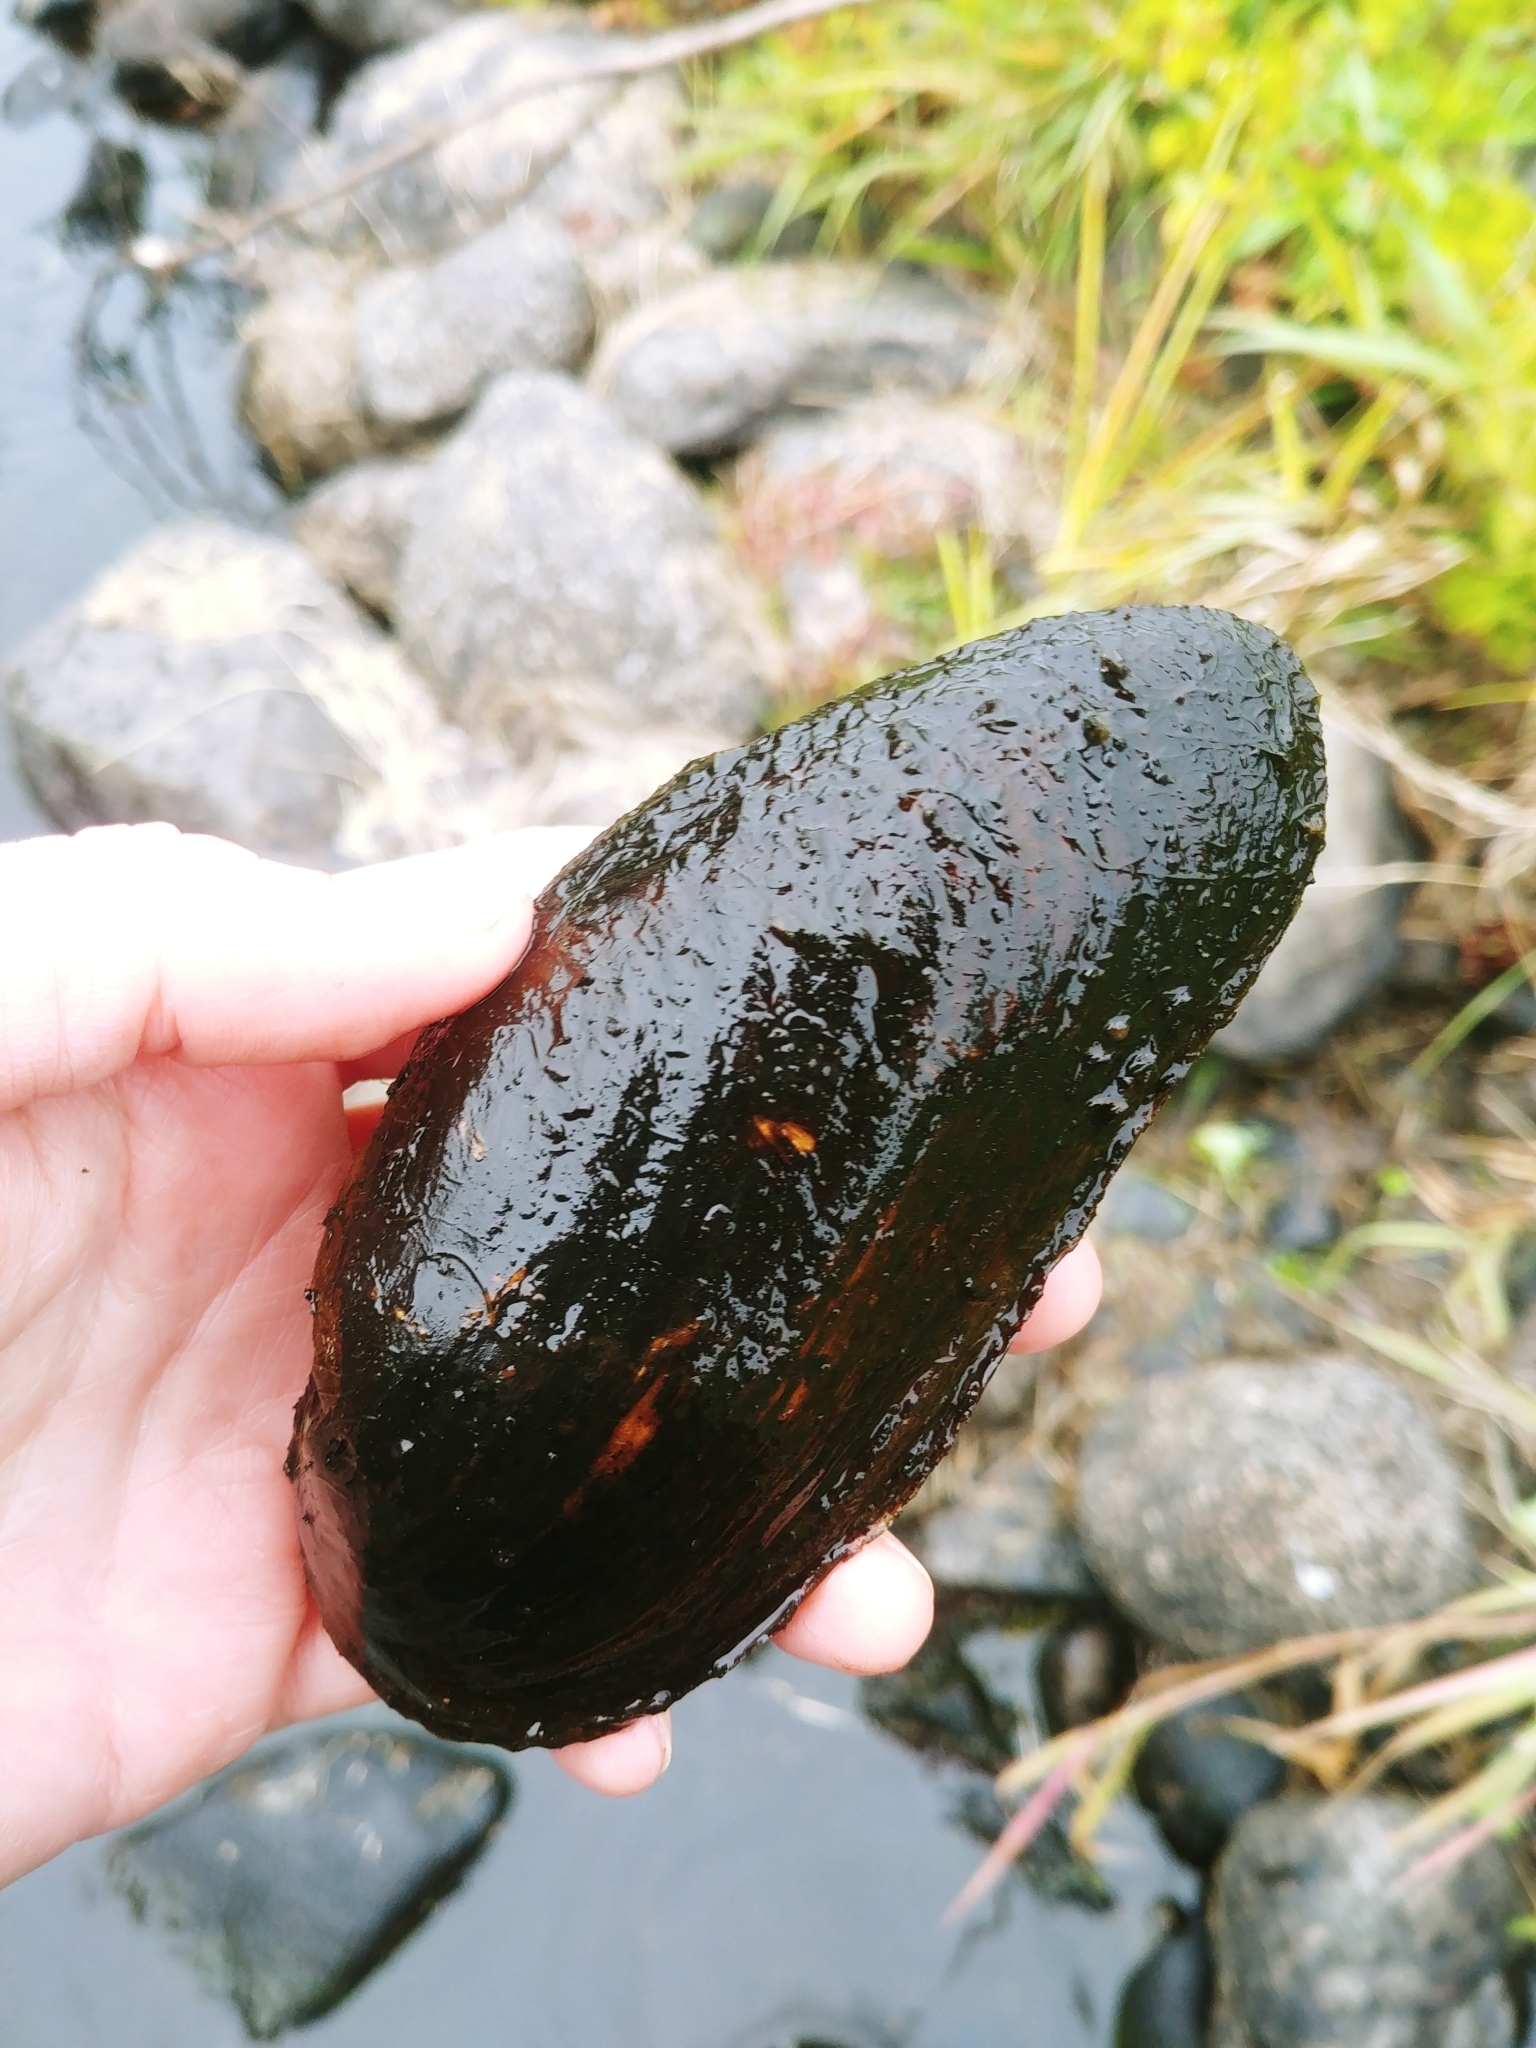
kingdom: Animalia
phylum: Mollusca
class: Bivalvia
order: Unionida
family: Margaritiferidae
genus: Margaritifera
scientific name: Margaritifera margaritifera
